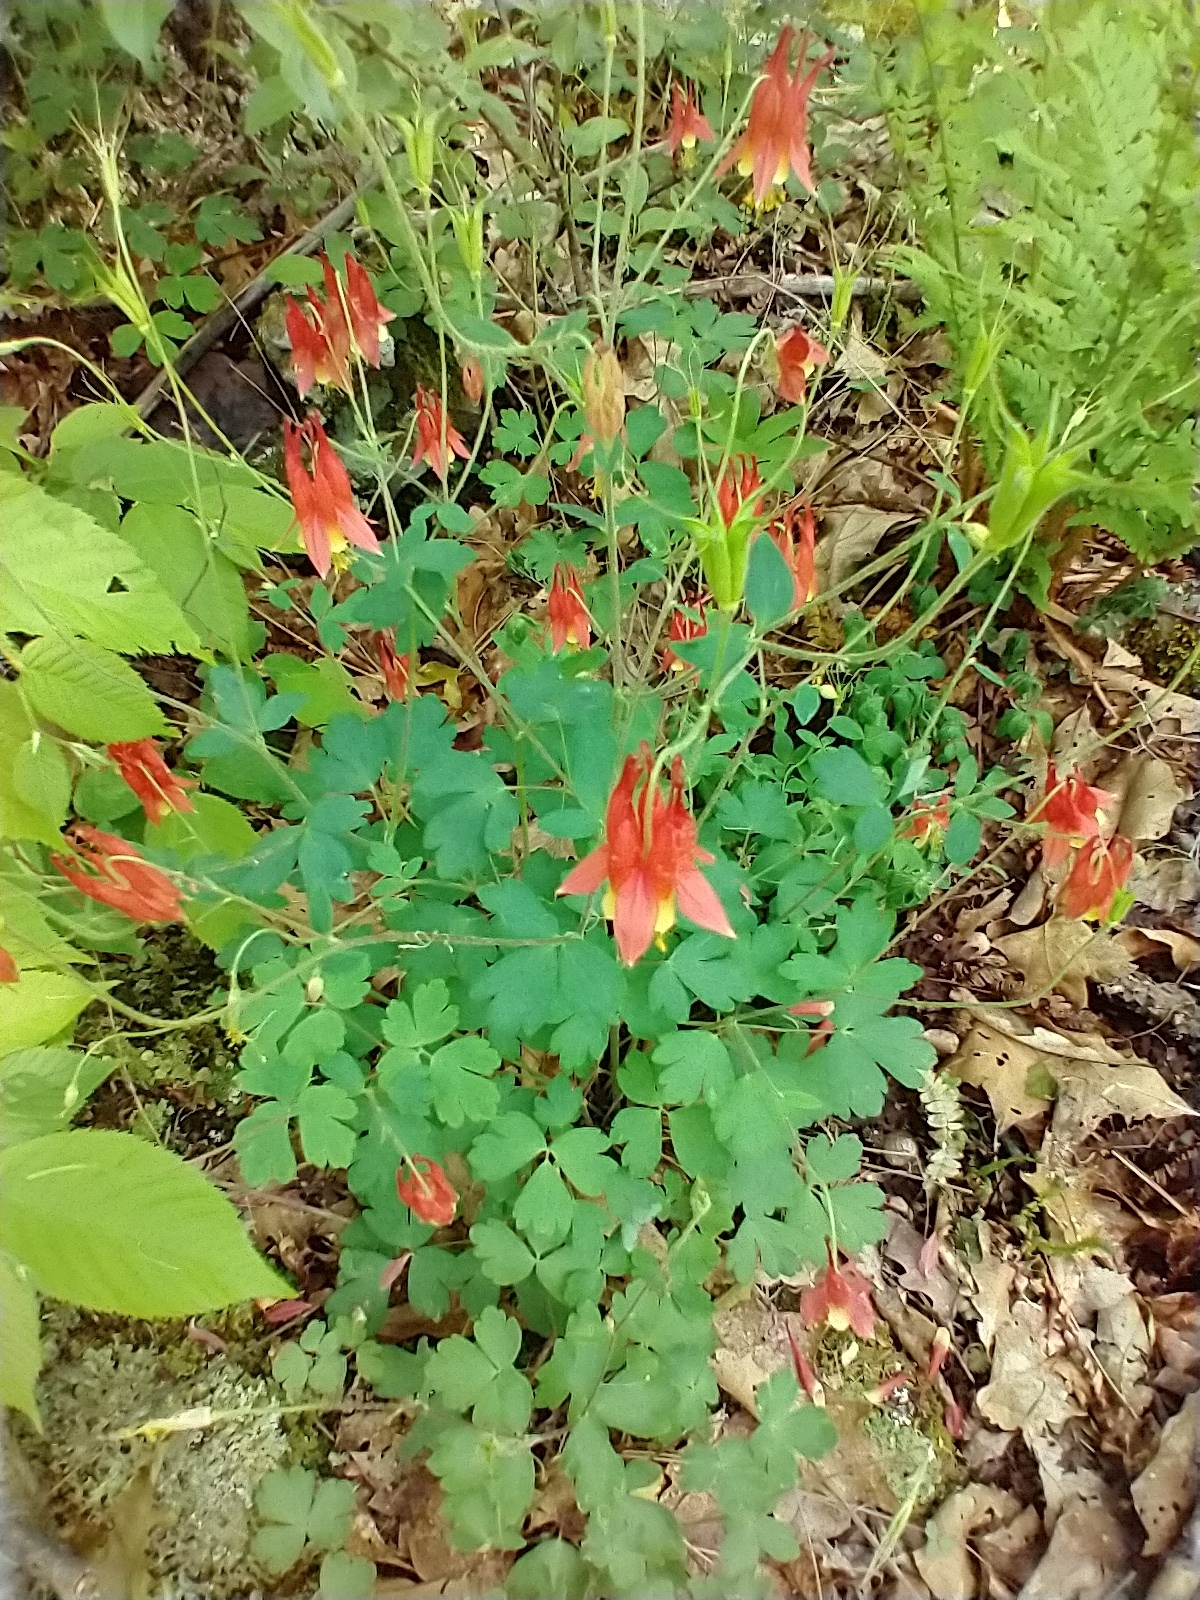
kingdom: Plantae
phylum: Tracheophyta
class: Magnoliopsida
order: Ranunculales
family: Ranunculaceae
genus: Aquilegia
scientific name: Aquilegia canadensis
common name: American columbine
